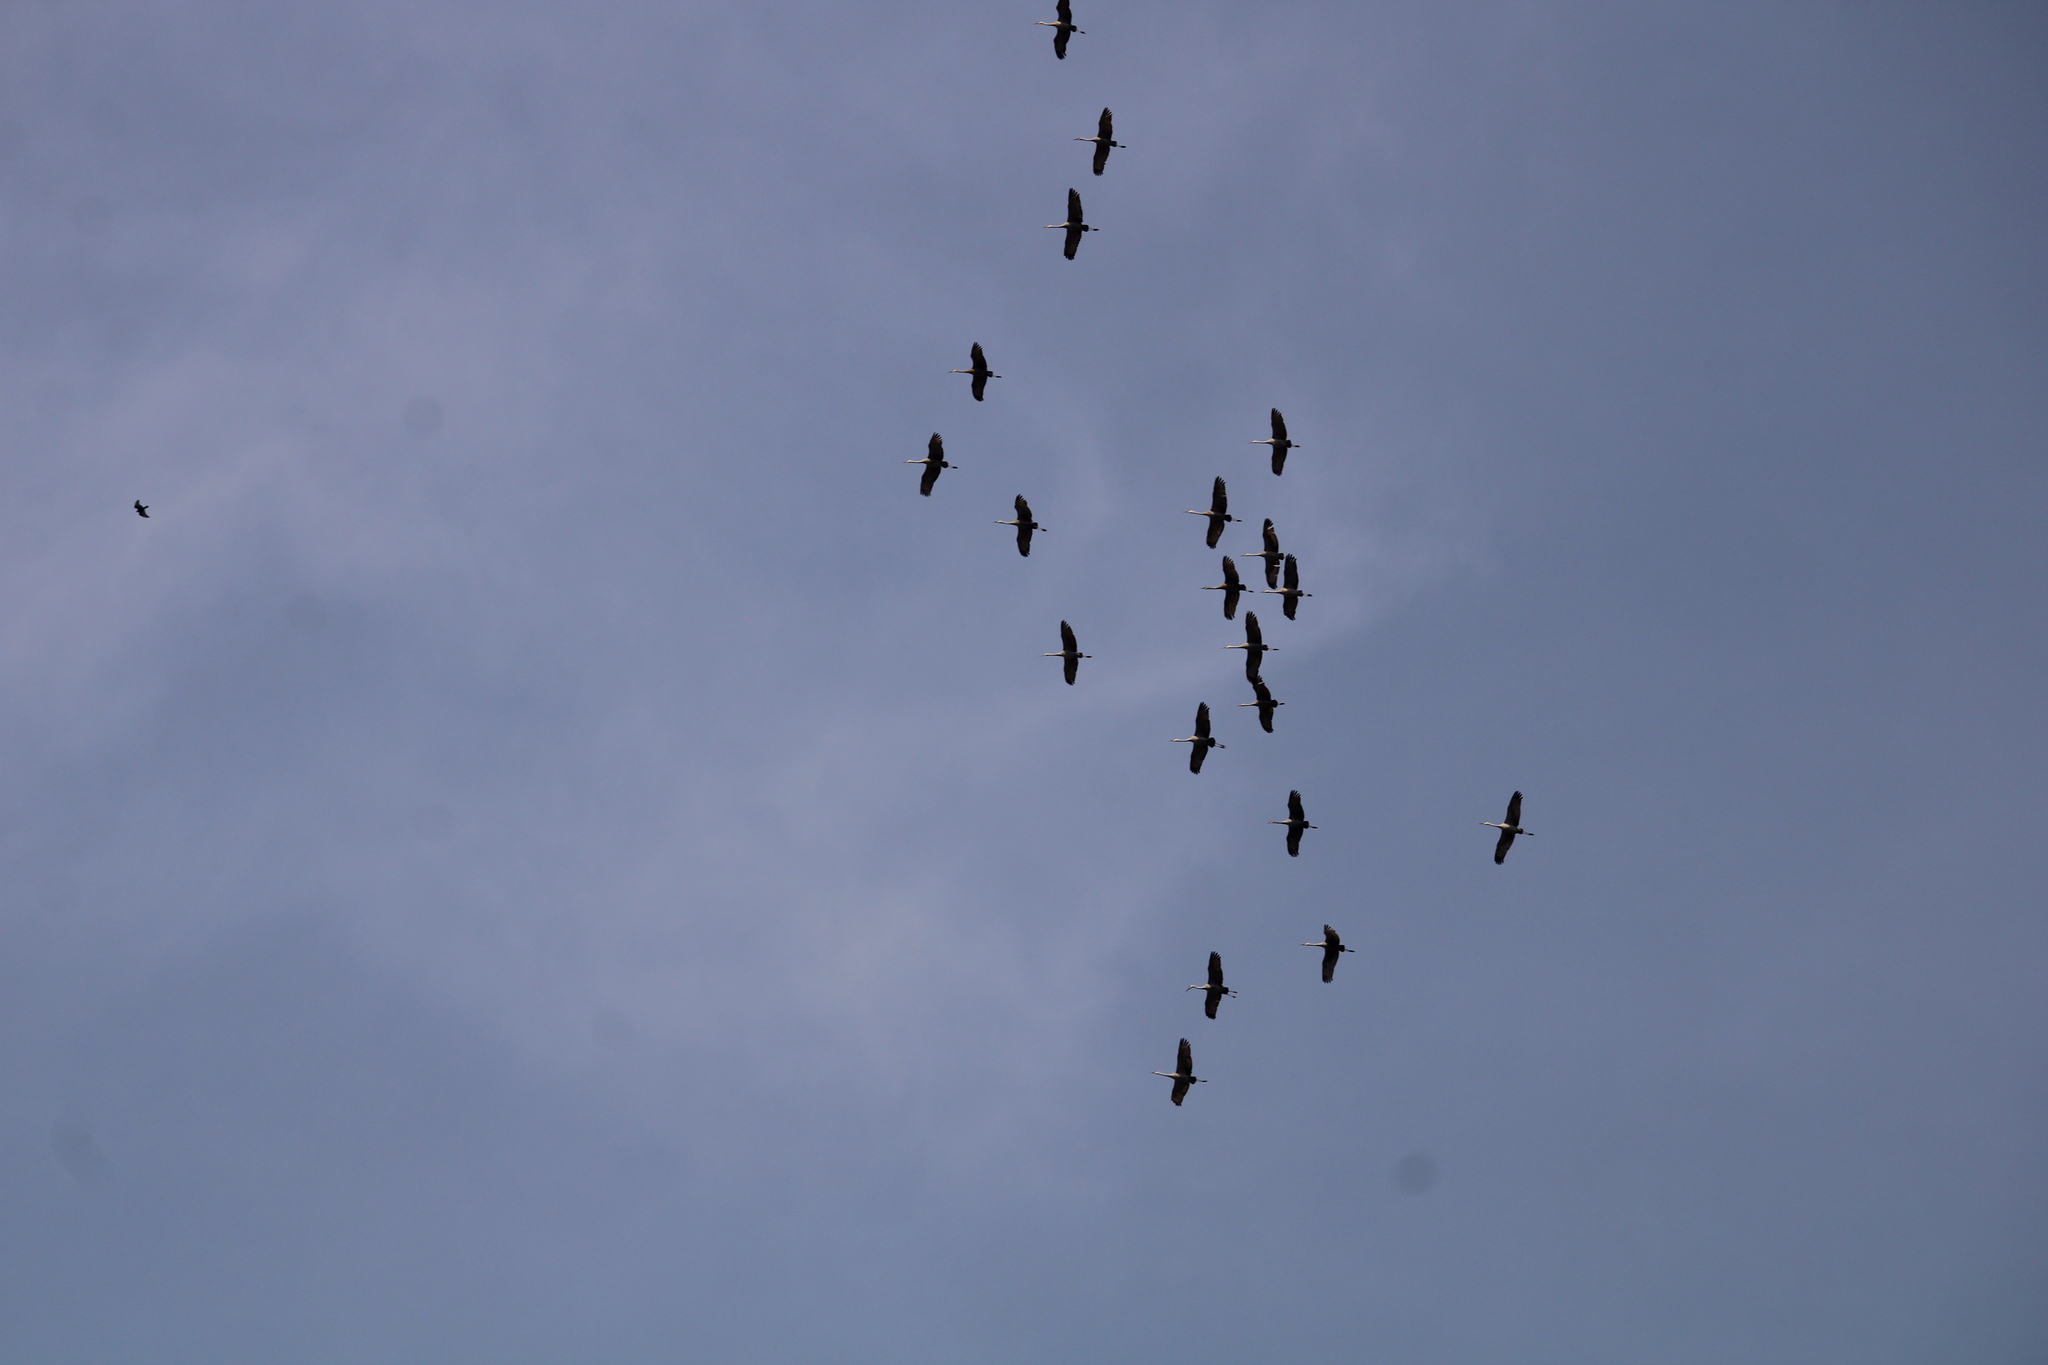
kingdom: Animalia
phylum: Chordata
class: Aves
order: Gruiformes
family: Gruidae
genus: Grus
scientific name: Grus canadensis
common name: Sandhill crane
